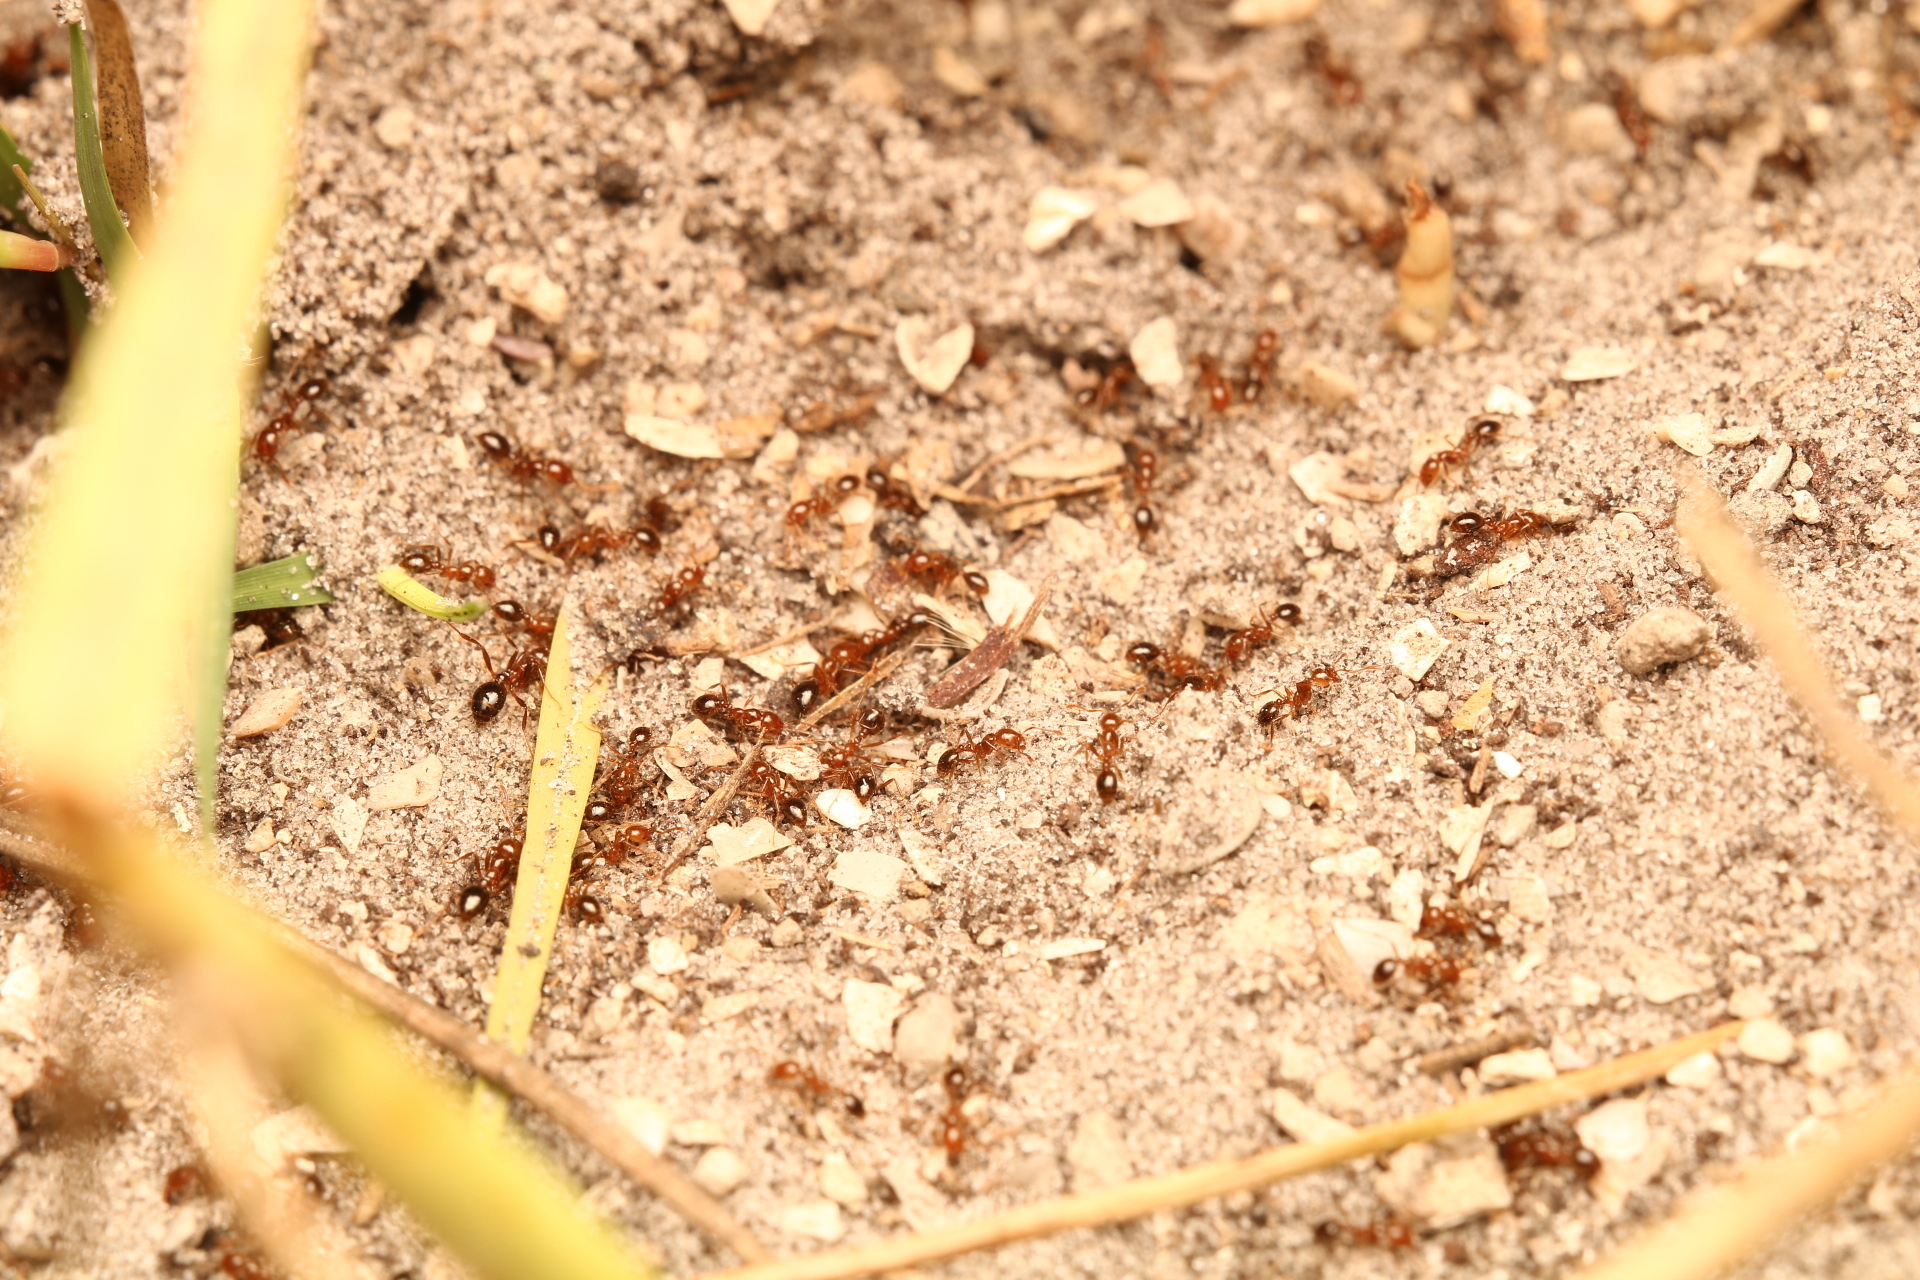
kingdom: Animalia
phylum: Arthropoda
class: Insecta
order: Hymenoptera
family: Formicidae
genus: Solenopsis
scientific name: Solenopsis invicta
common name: Red imported fire ant
